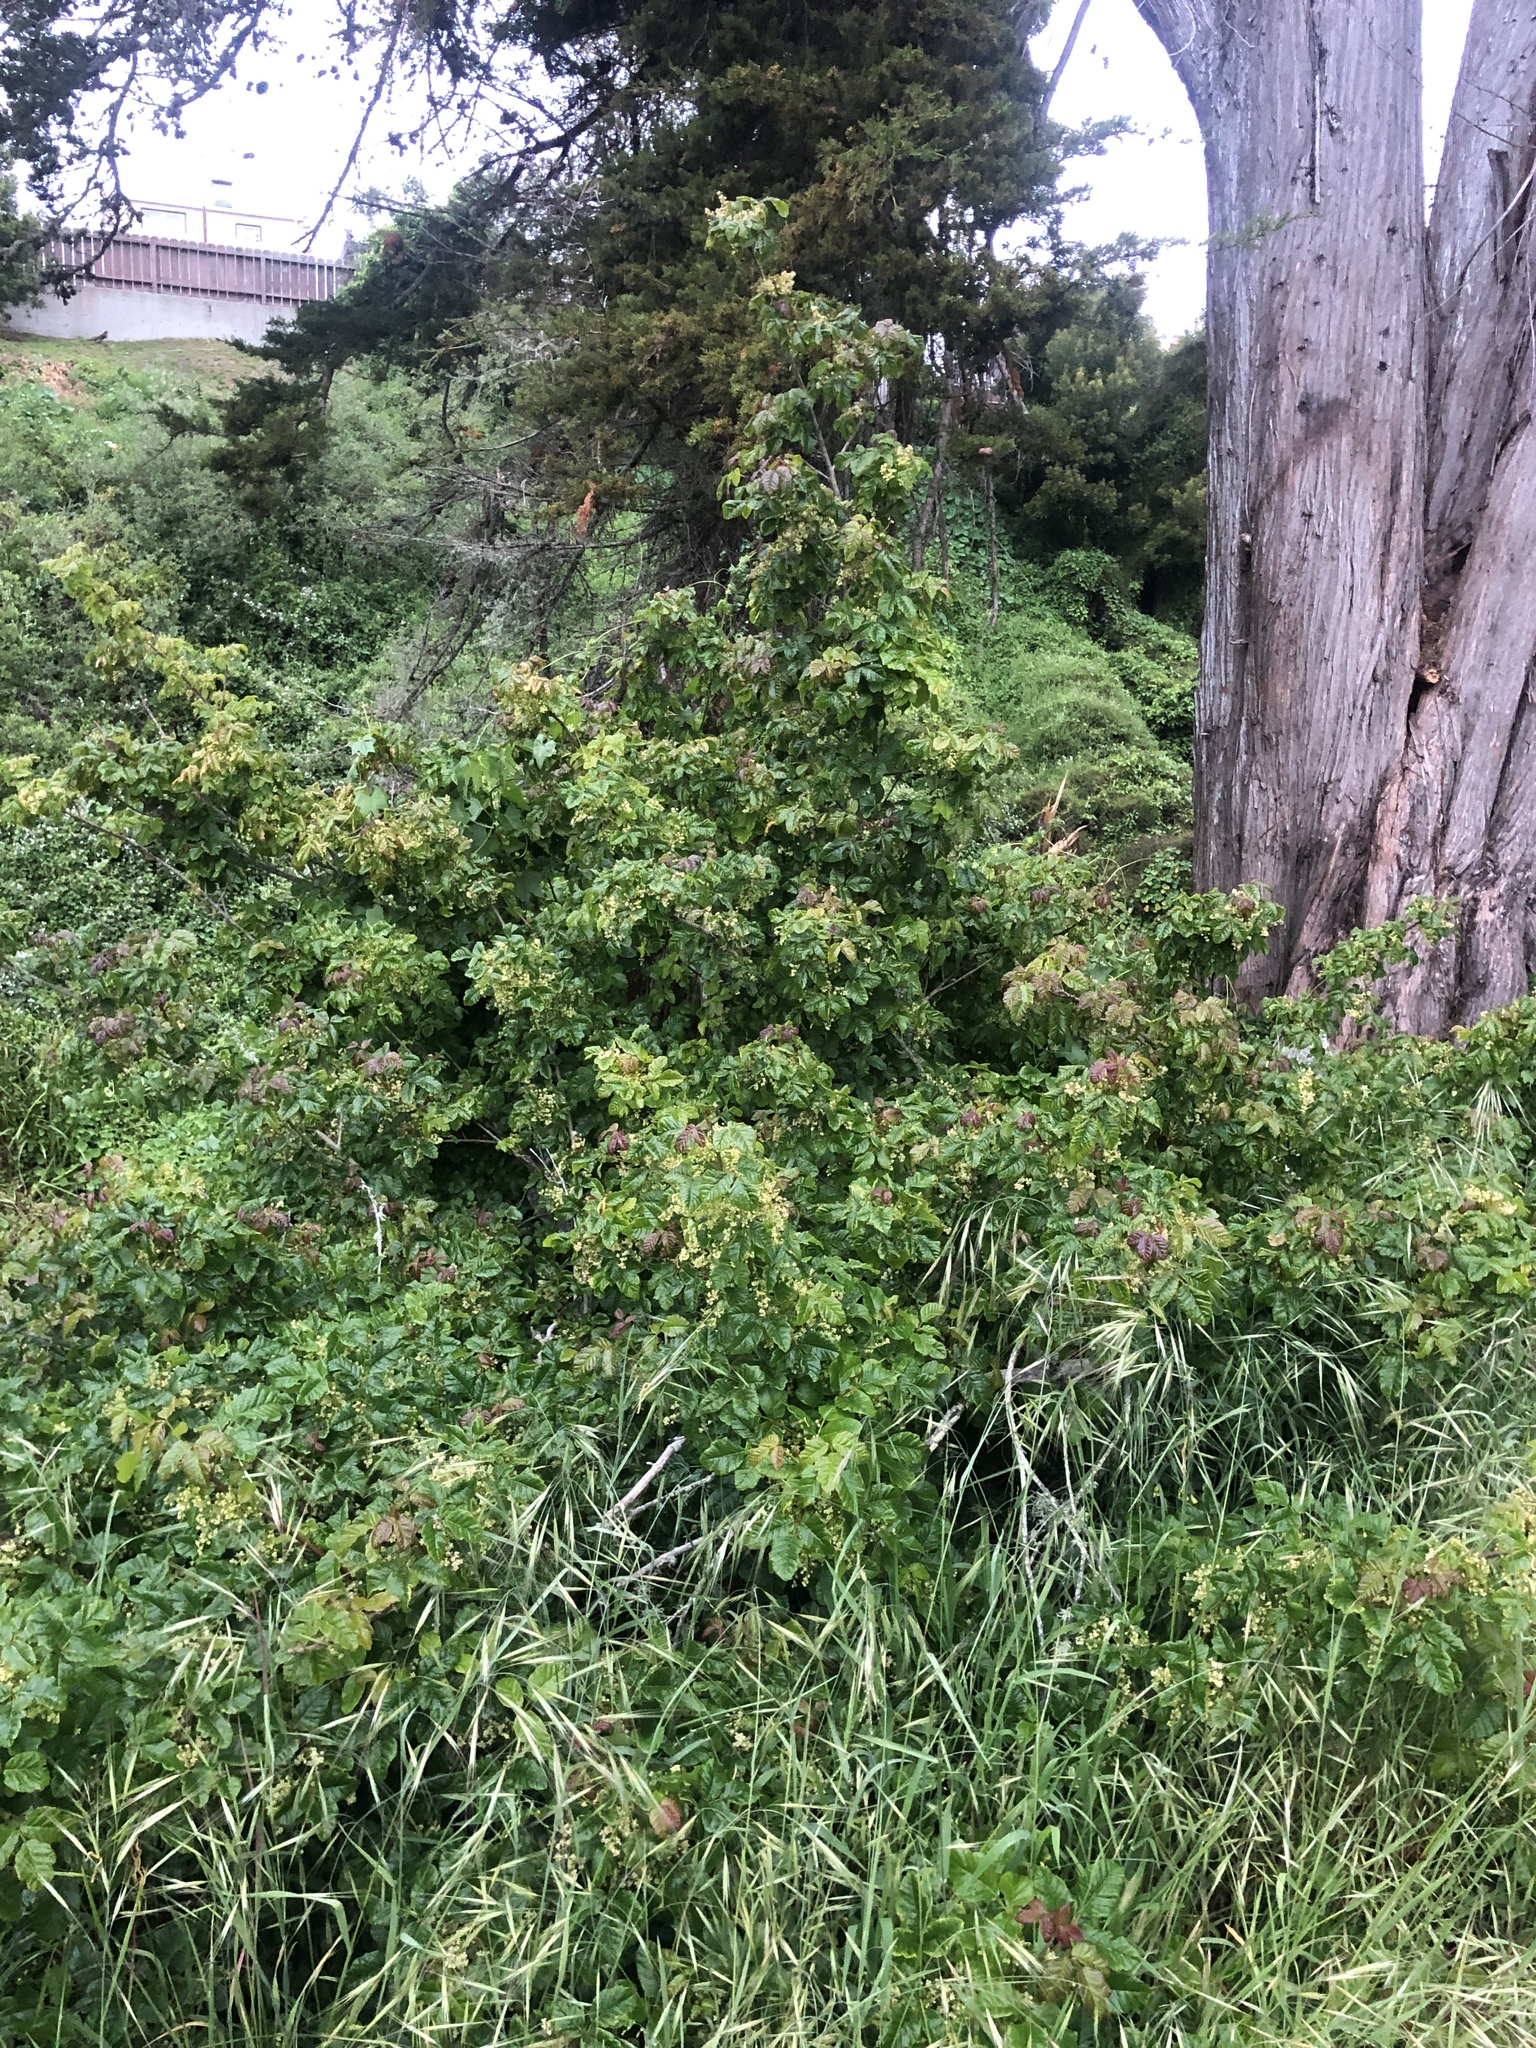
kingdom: Plantae
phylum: Tracheophyta
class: Magnoliopsida
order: Sapindales
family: Anacardiaceae
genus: Toxicodendron
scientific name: Toxicodendron diversilobum
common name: Pacific poison-oak
